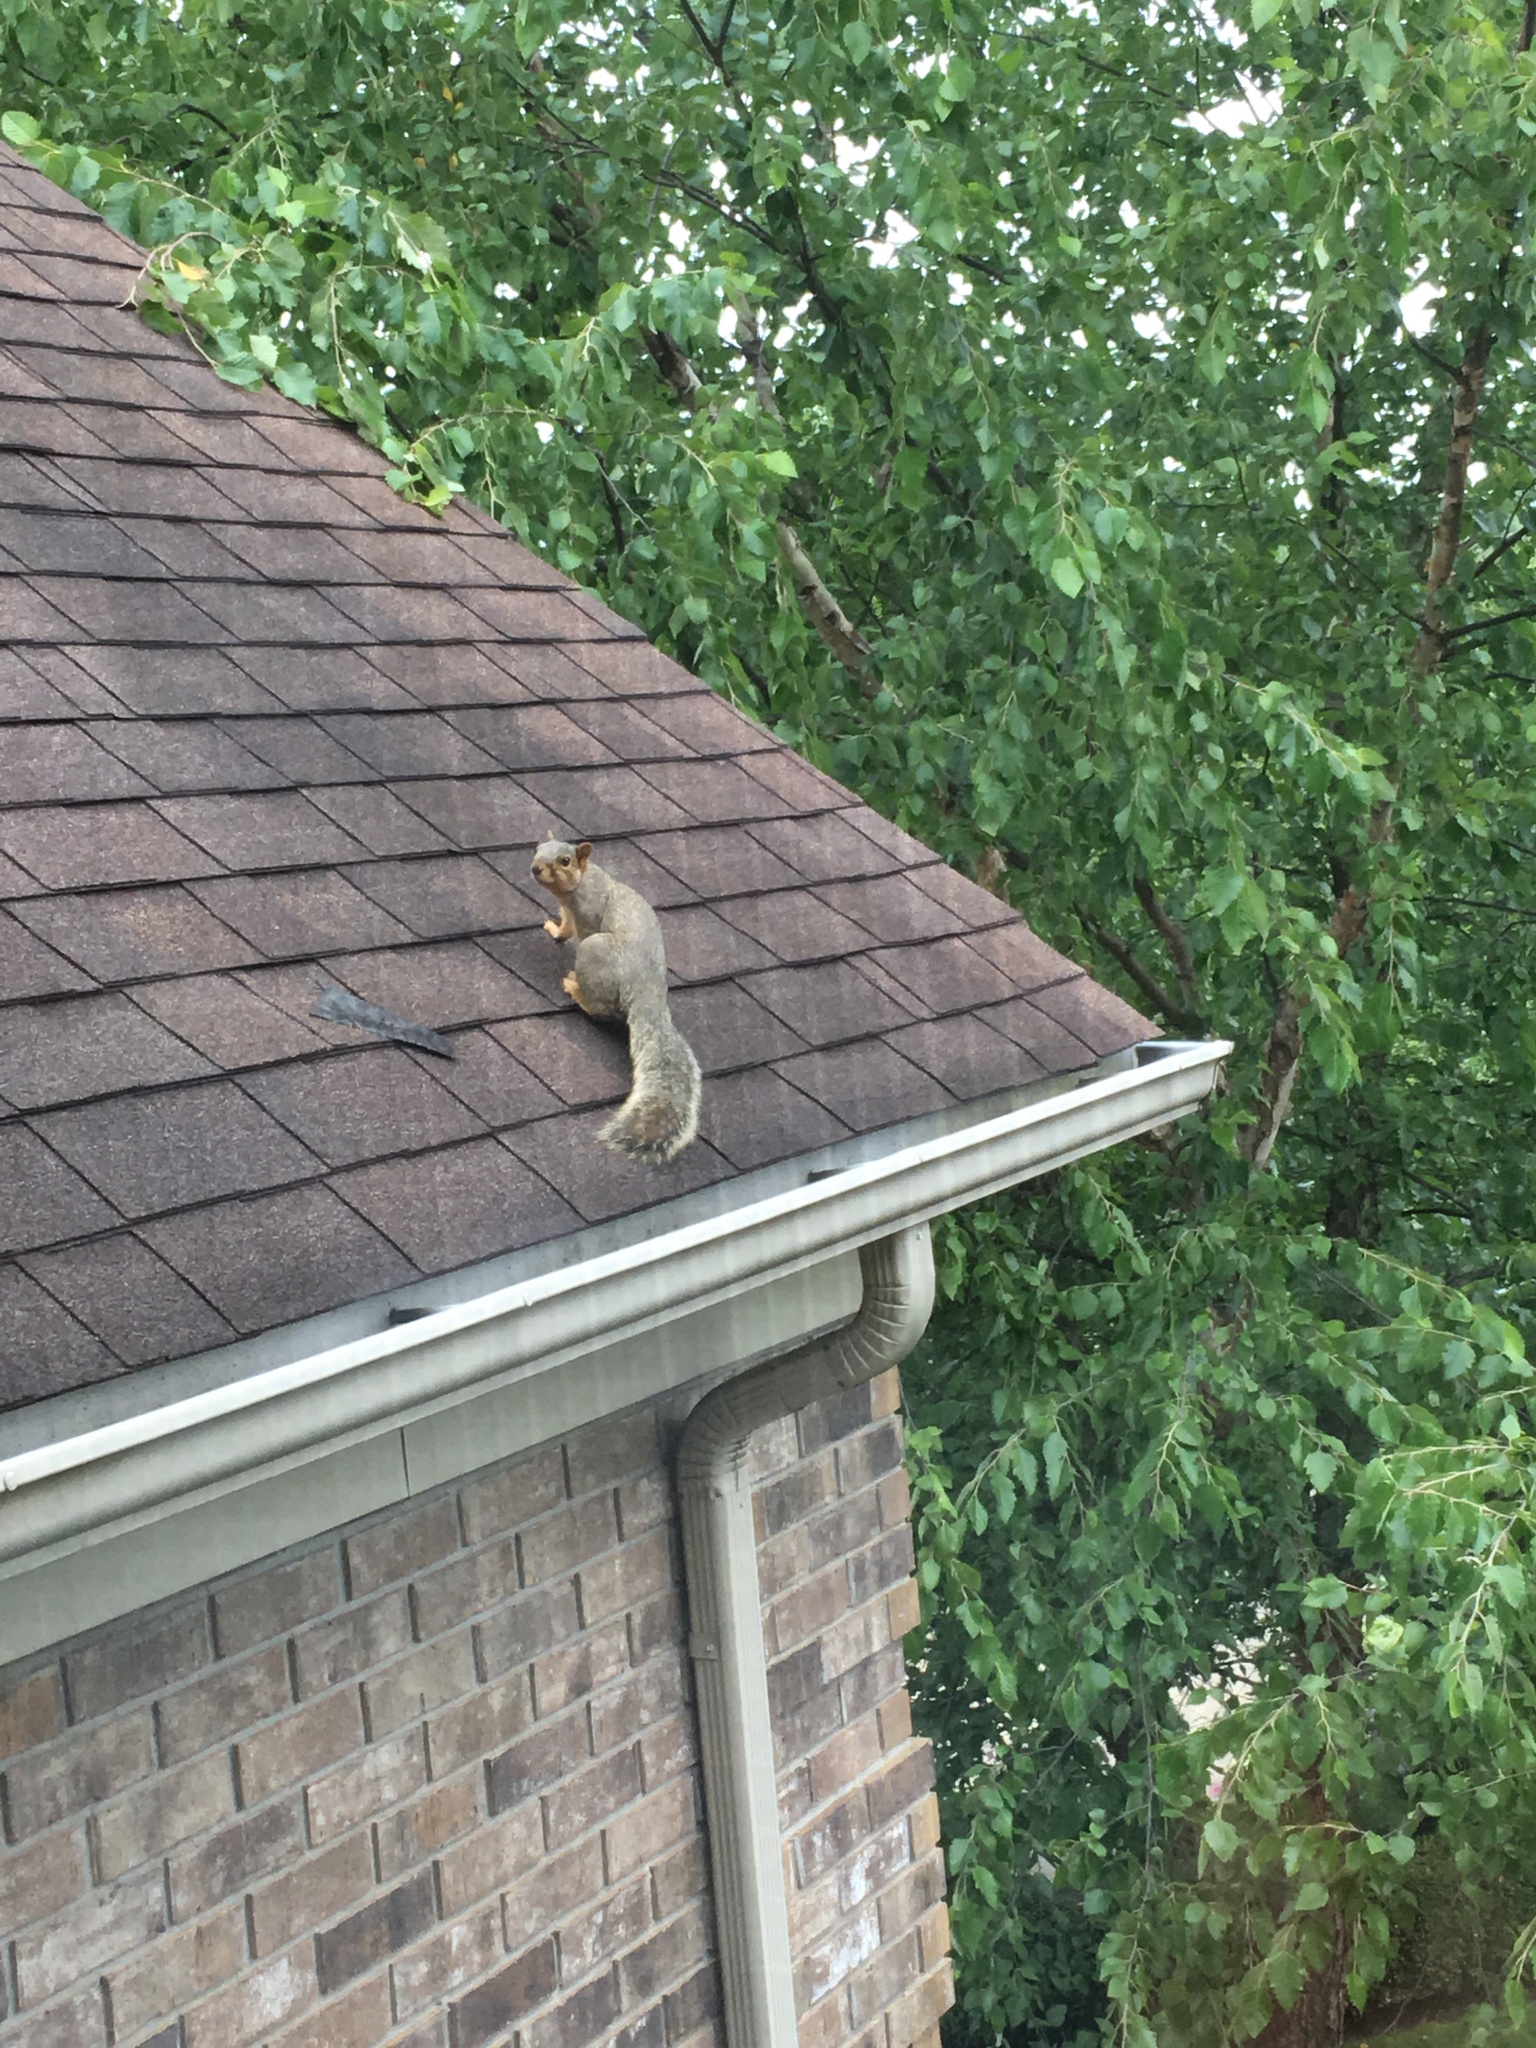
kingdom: Animalia
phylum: Chordata
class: Mammalia
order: Rodentia
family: Sciuridae
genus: Sciurus
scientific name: Sciurus niger
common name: Fox squirrel
